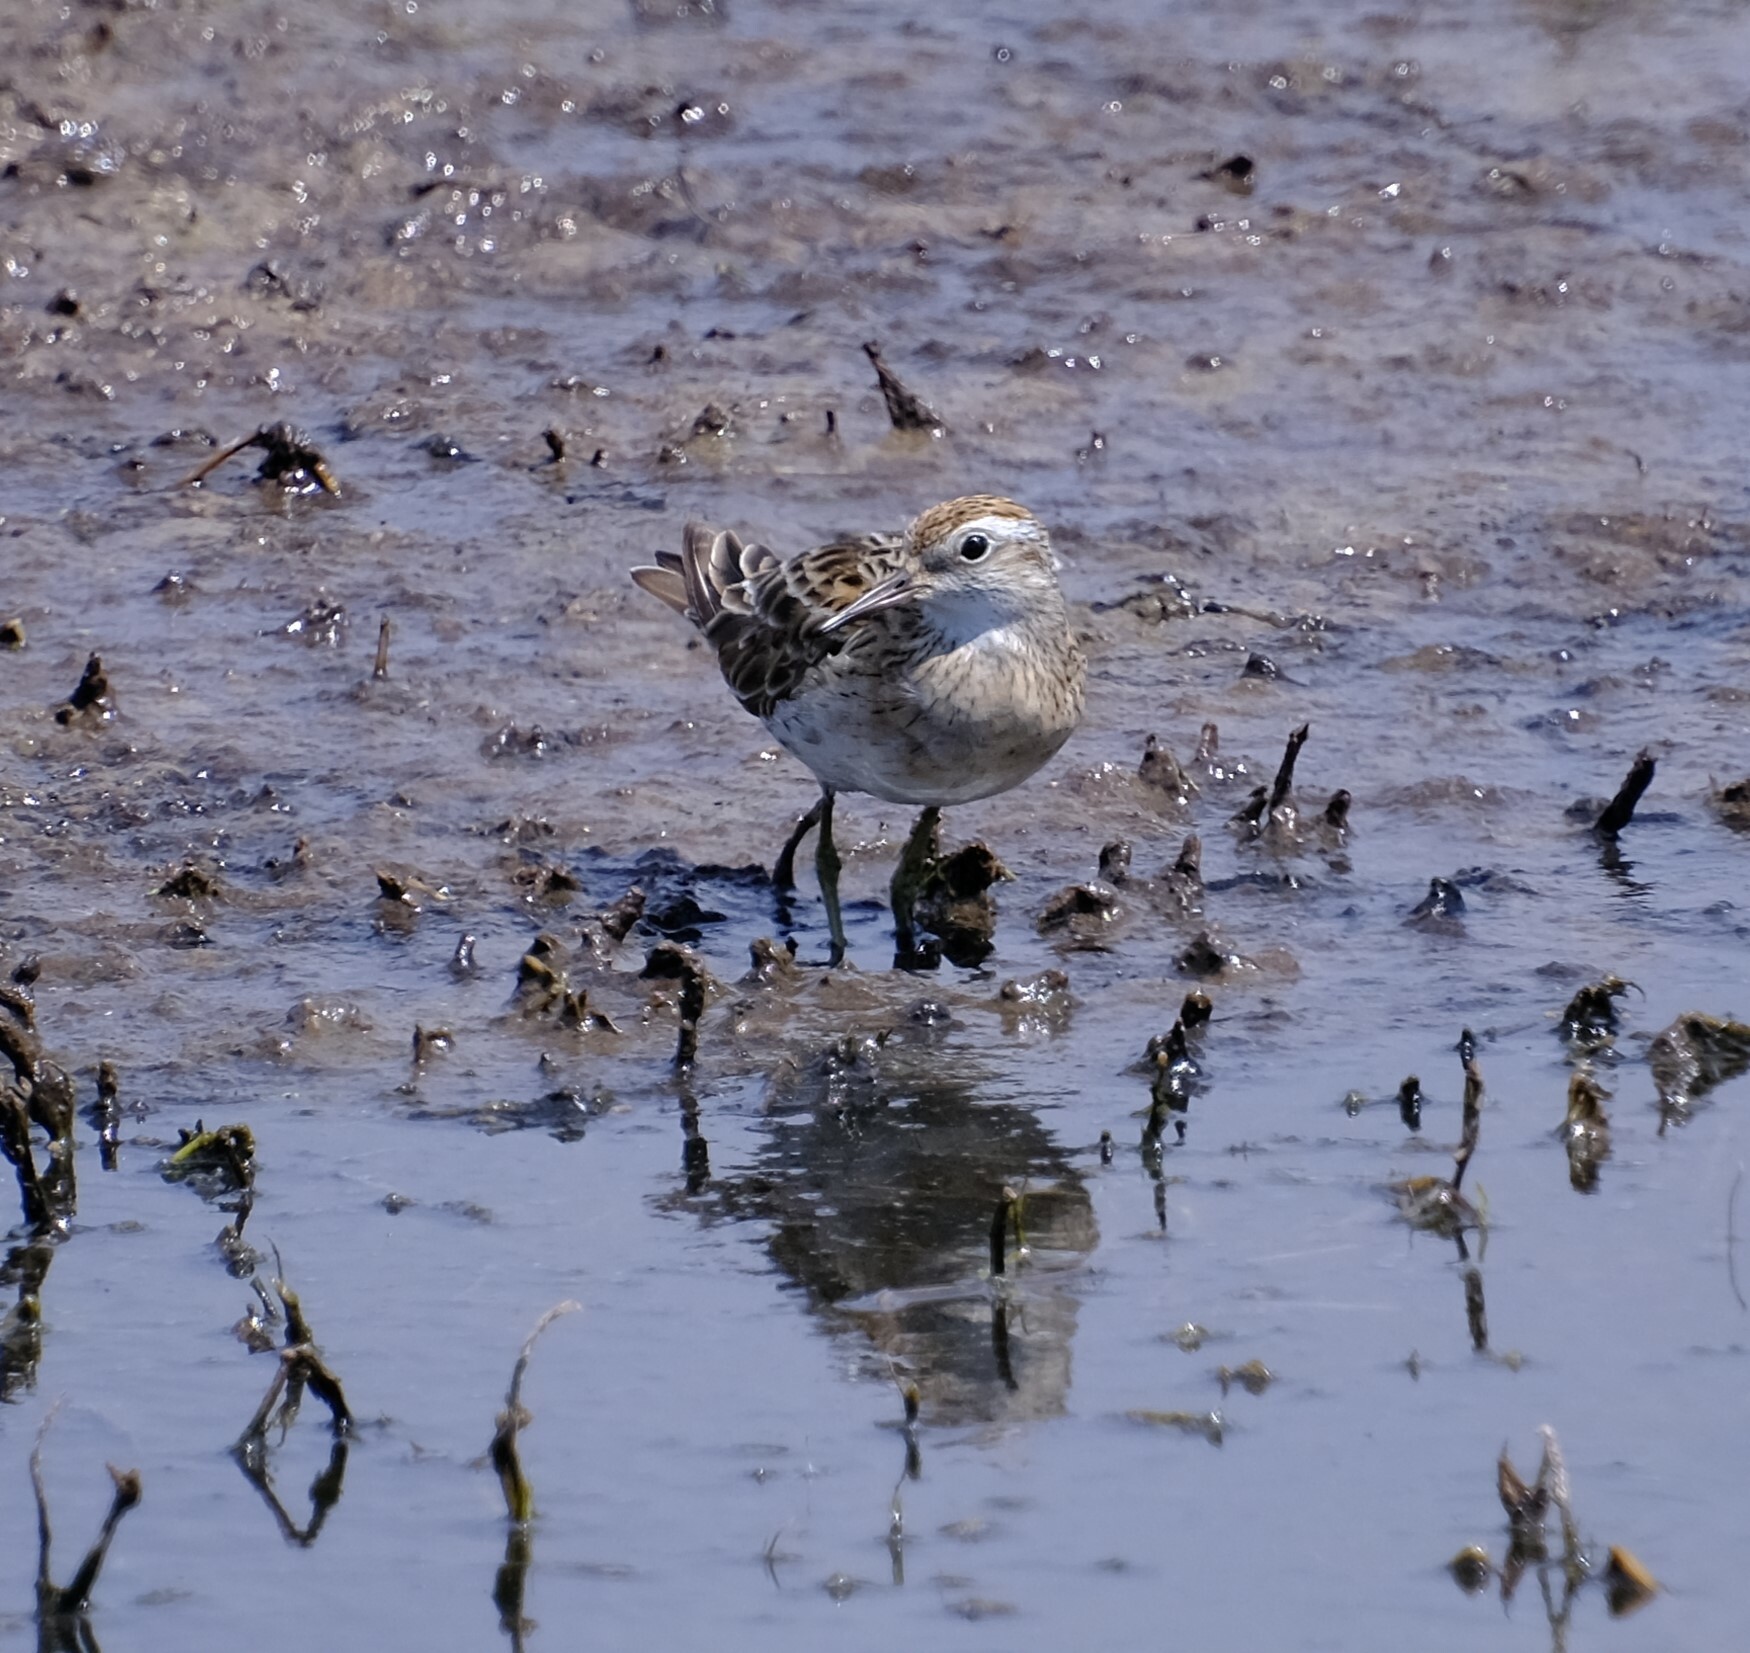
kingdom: Animalia
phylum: Chordata
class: Aves
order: Charadriiformes
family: Scolopacidae
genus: Calidris
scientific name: Calidris acuminata
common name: Sharp-tailed sandpiper
